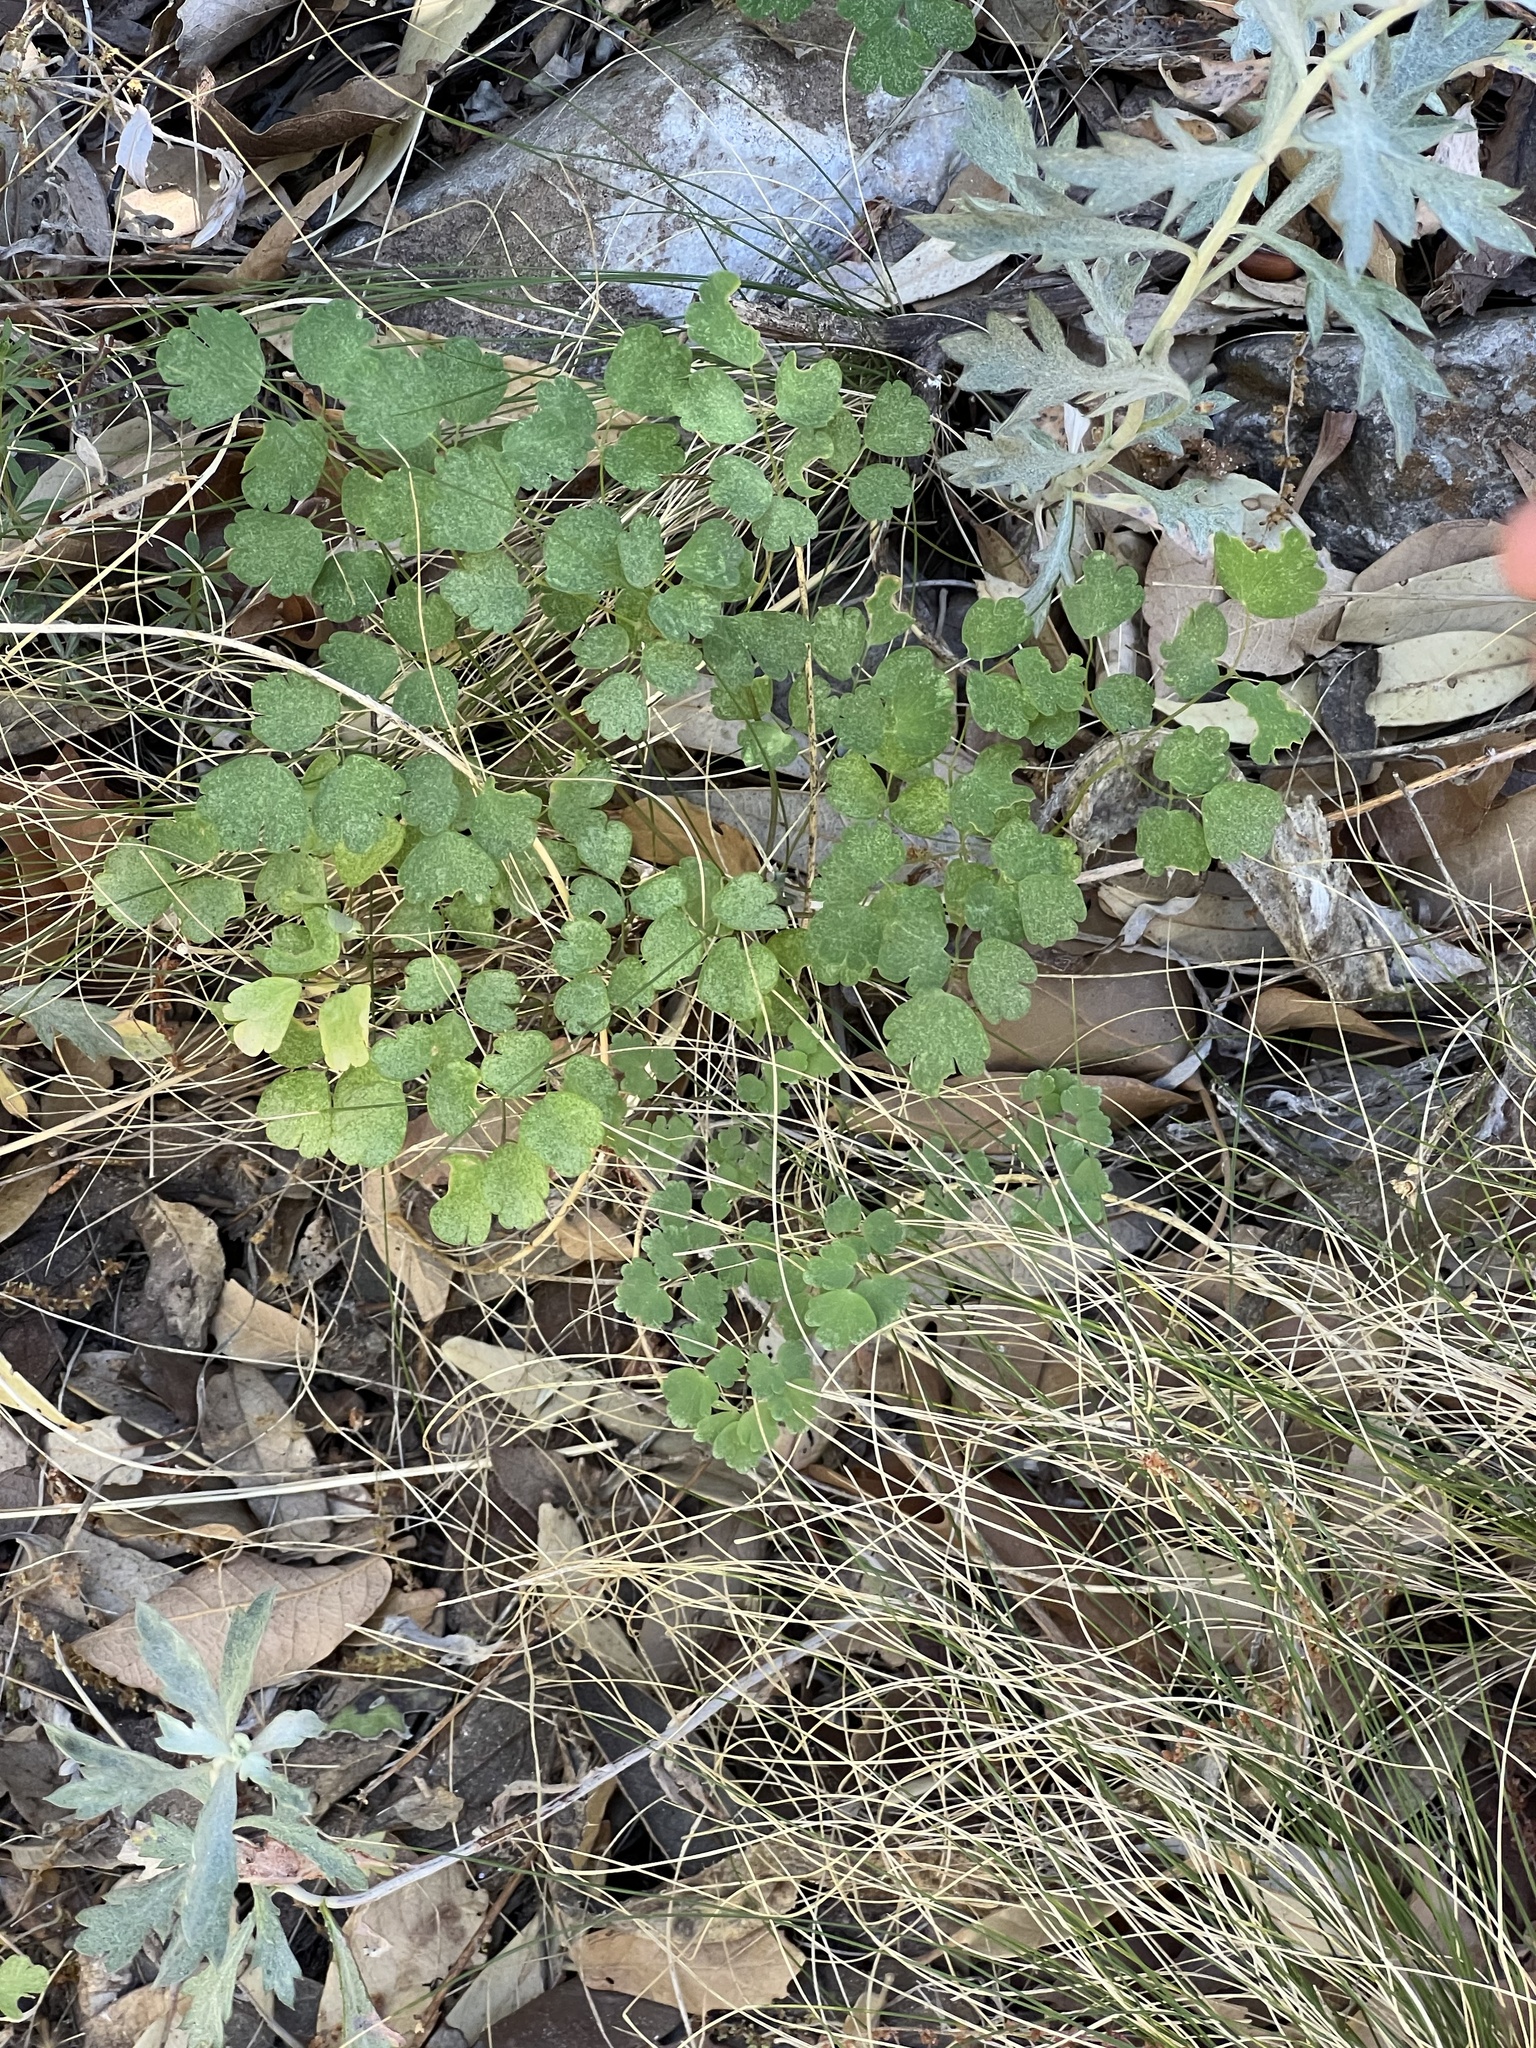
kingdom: Plantae
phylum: Tracheophyta
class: Magnoliopsida
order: Ranunculales
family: Ranunculaceae
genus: Thalictrum
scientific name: Thalictrum fendleri
